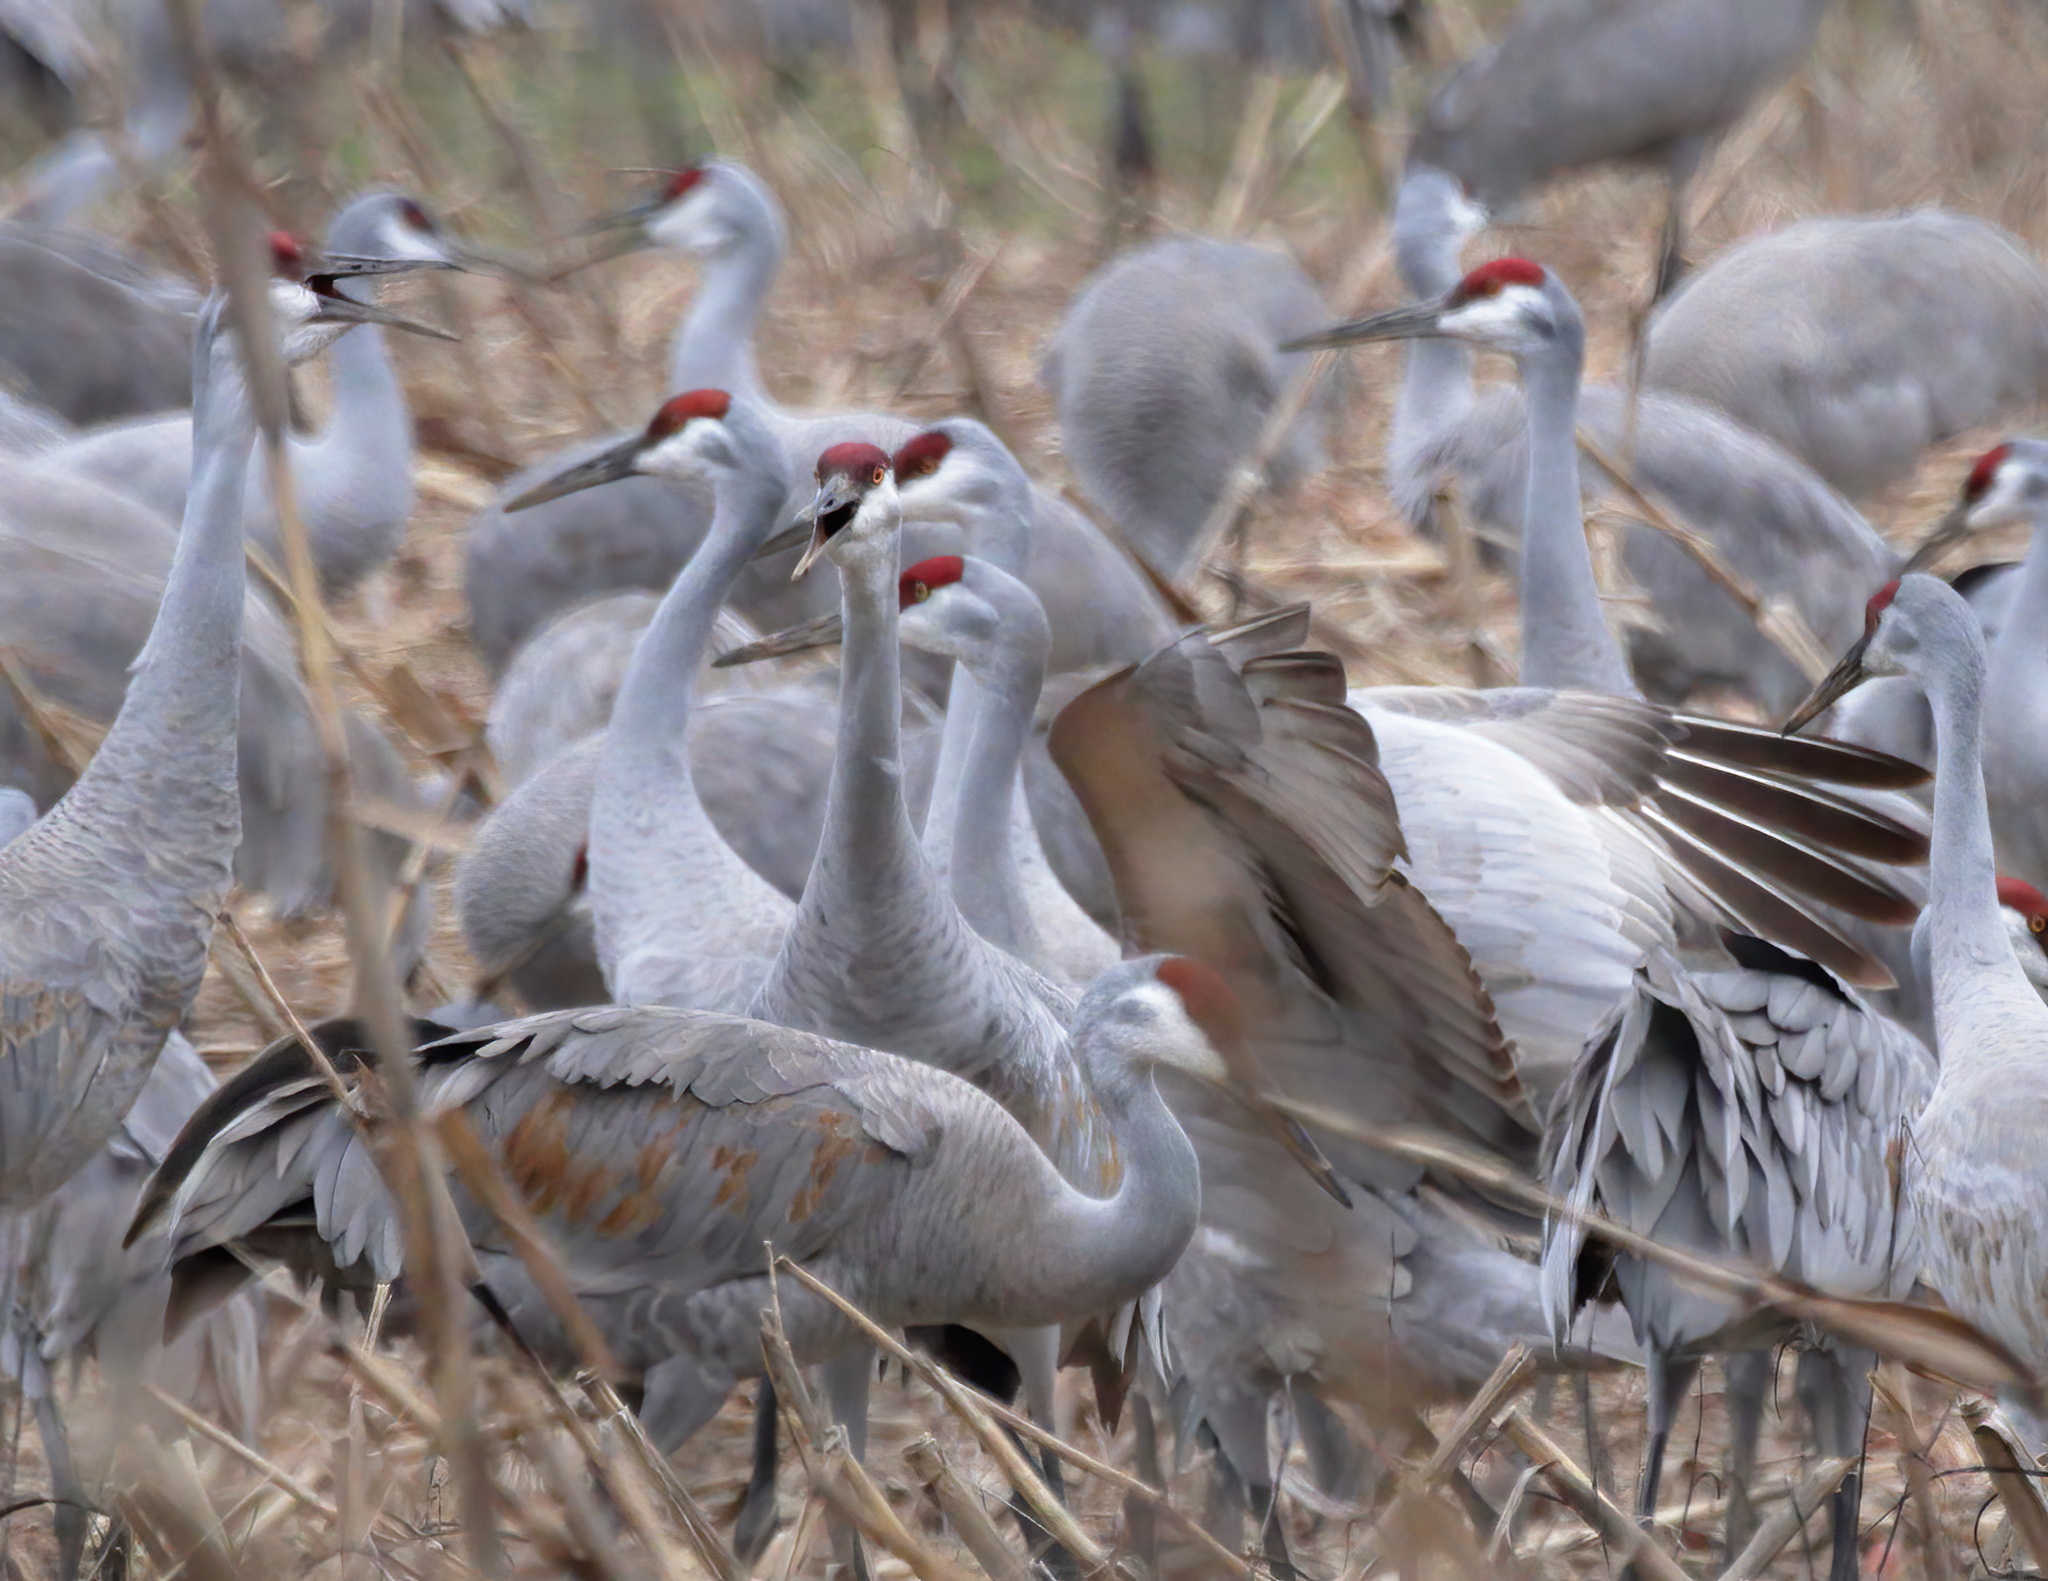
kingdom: Animalia
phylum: Chordata
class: Aves
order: Gruiformes
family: Gruidae
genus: Grus
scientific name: Grus canadensis
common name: Sandhill crane
